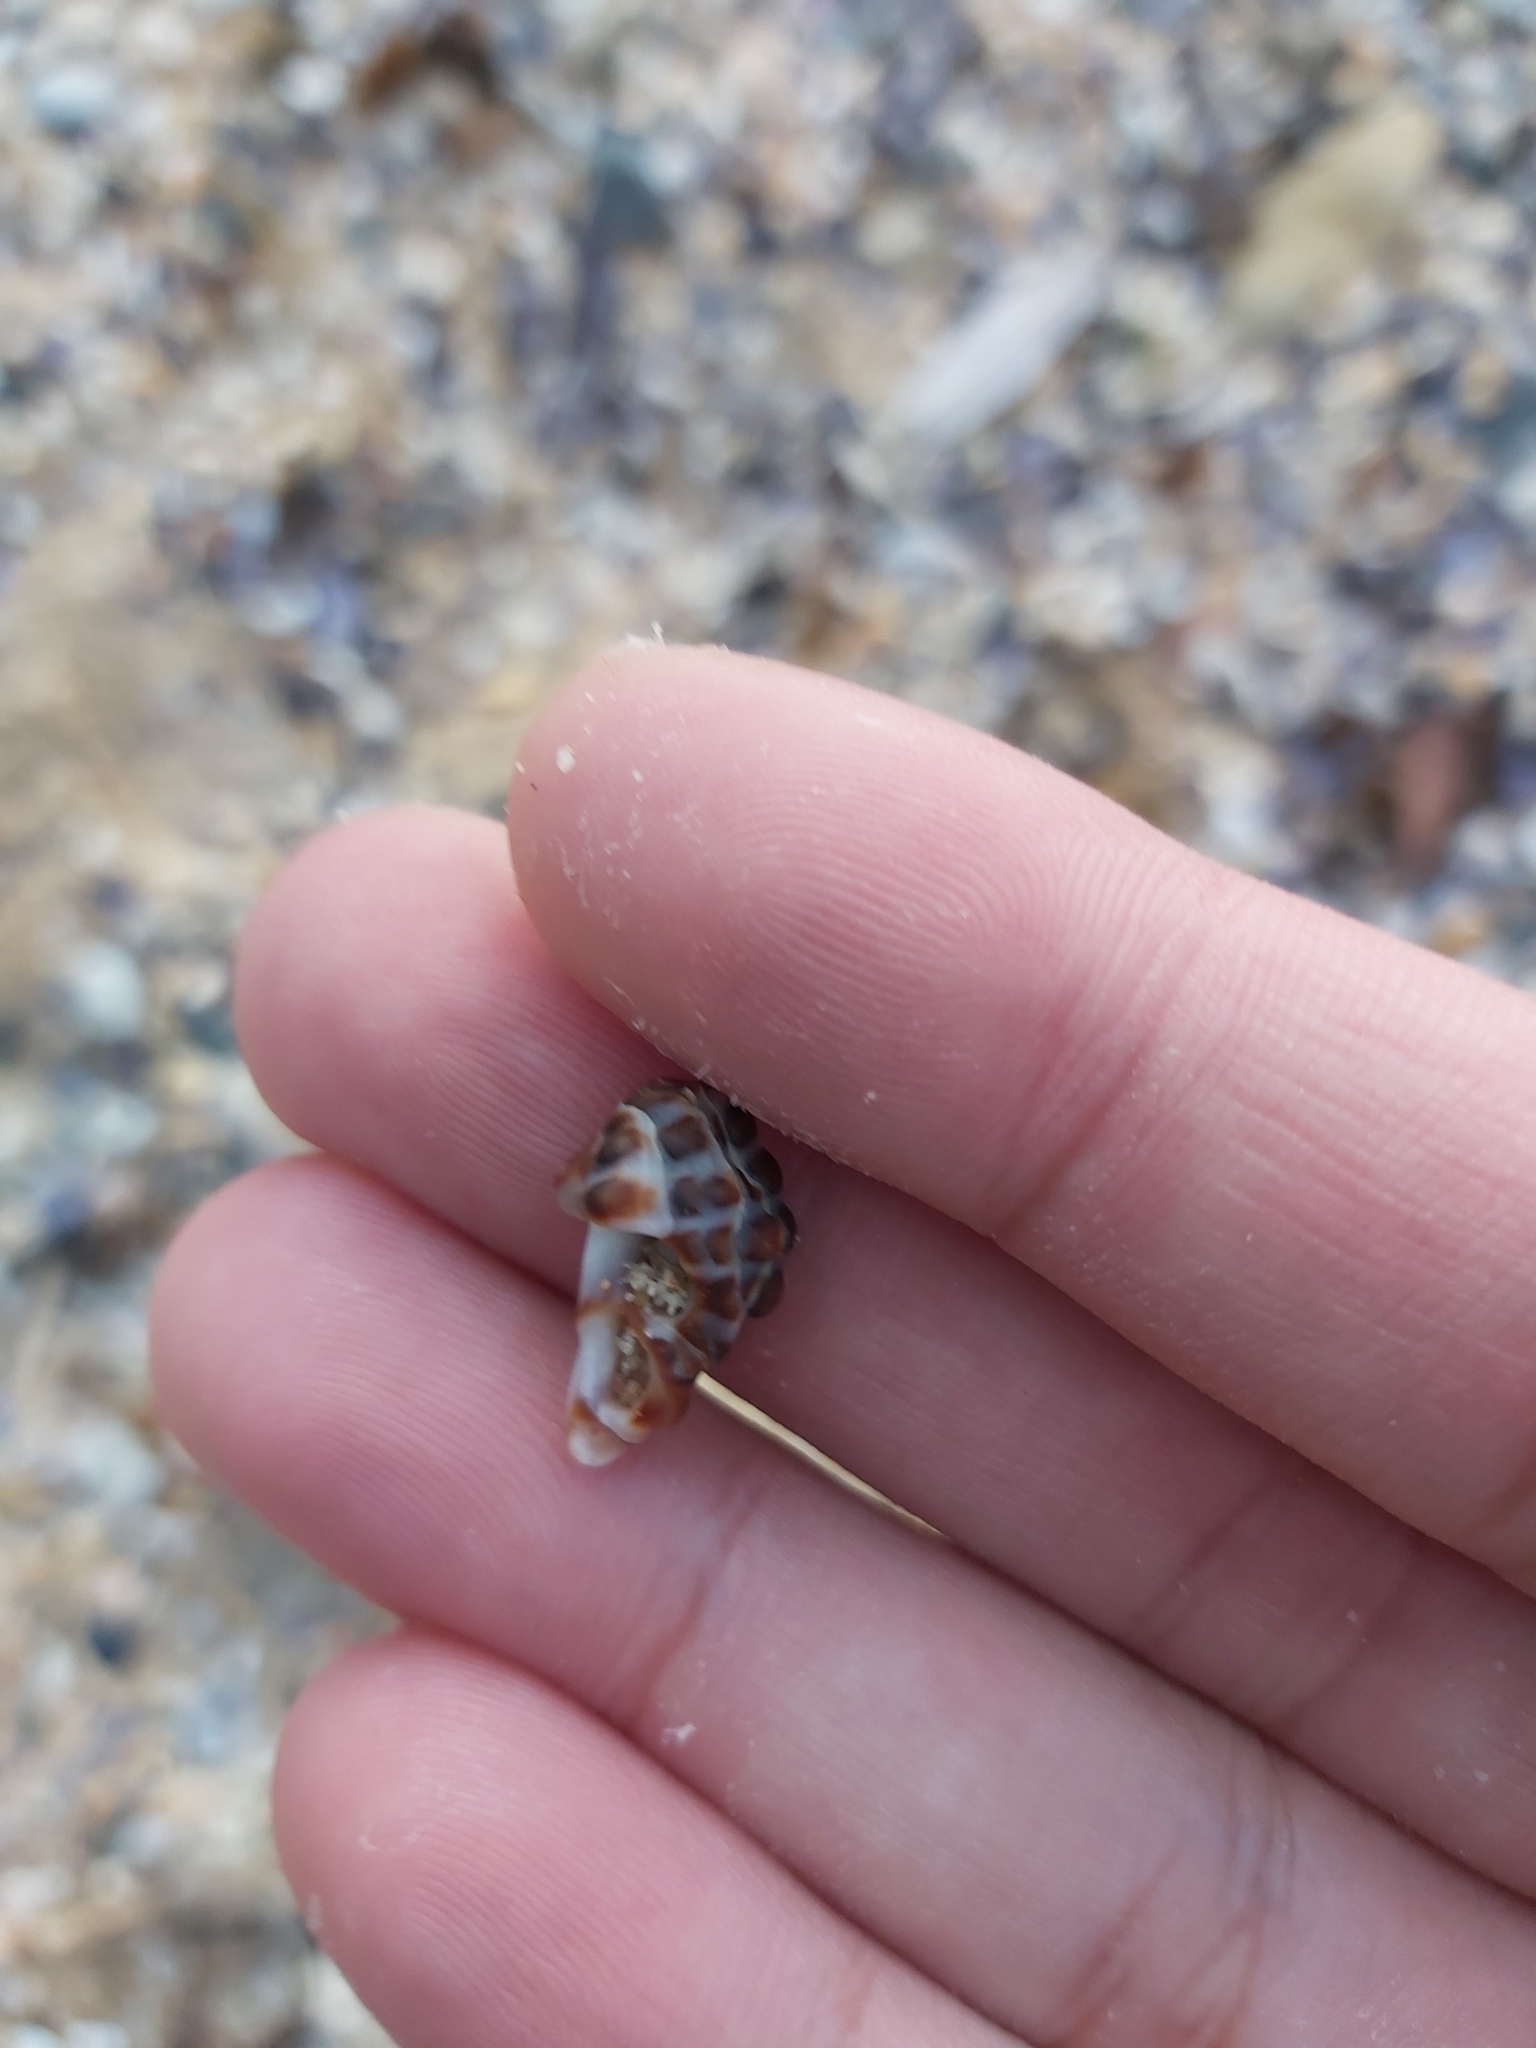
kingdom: Animalia
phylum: Mollusca
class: Gastropoda
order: Neogastropoda
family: Muricidae
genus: Tenguella
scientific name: Tenguella marginalba
